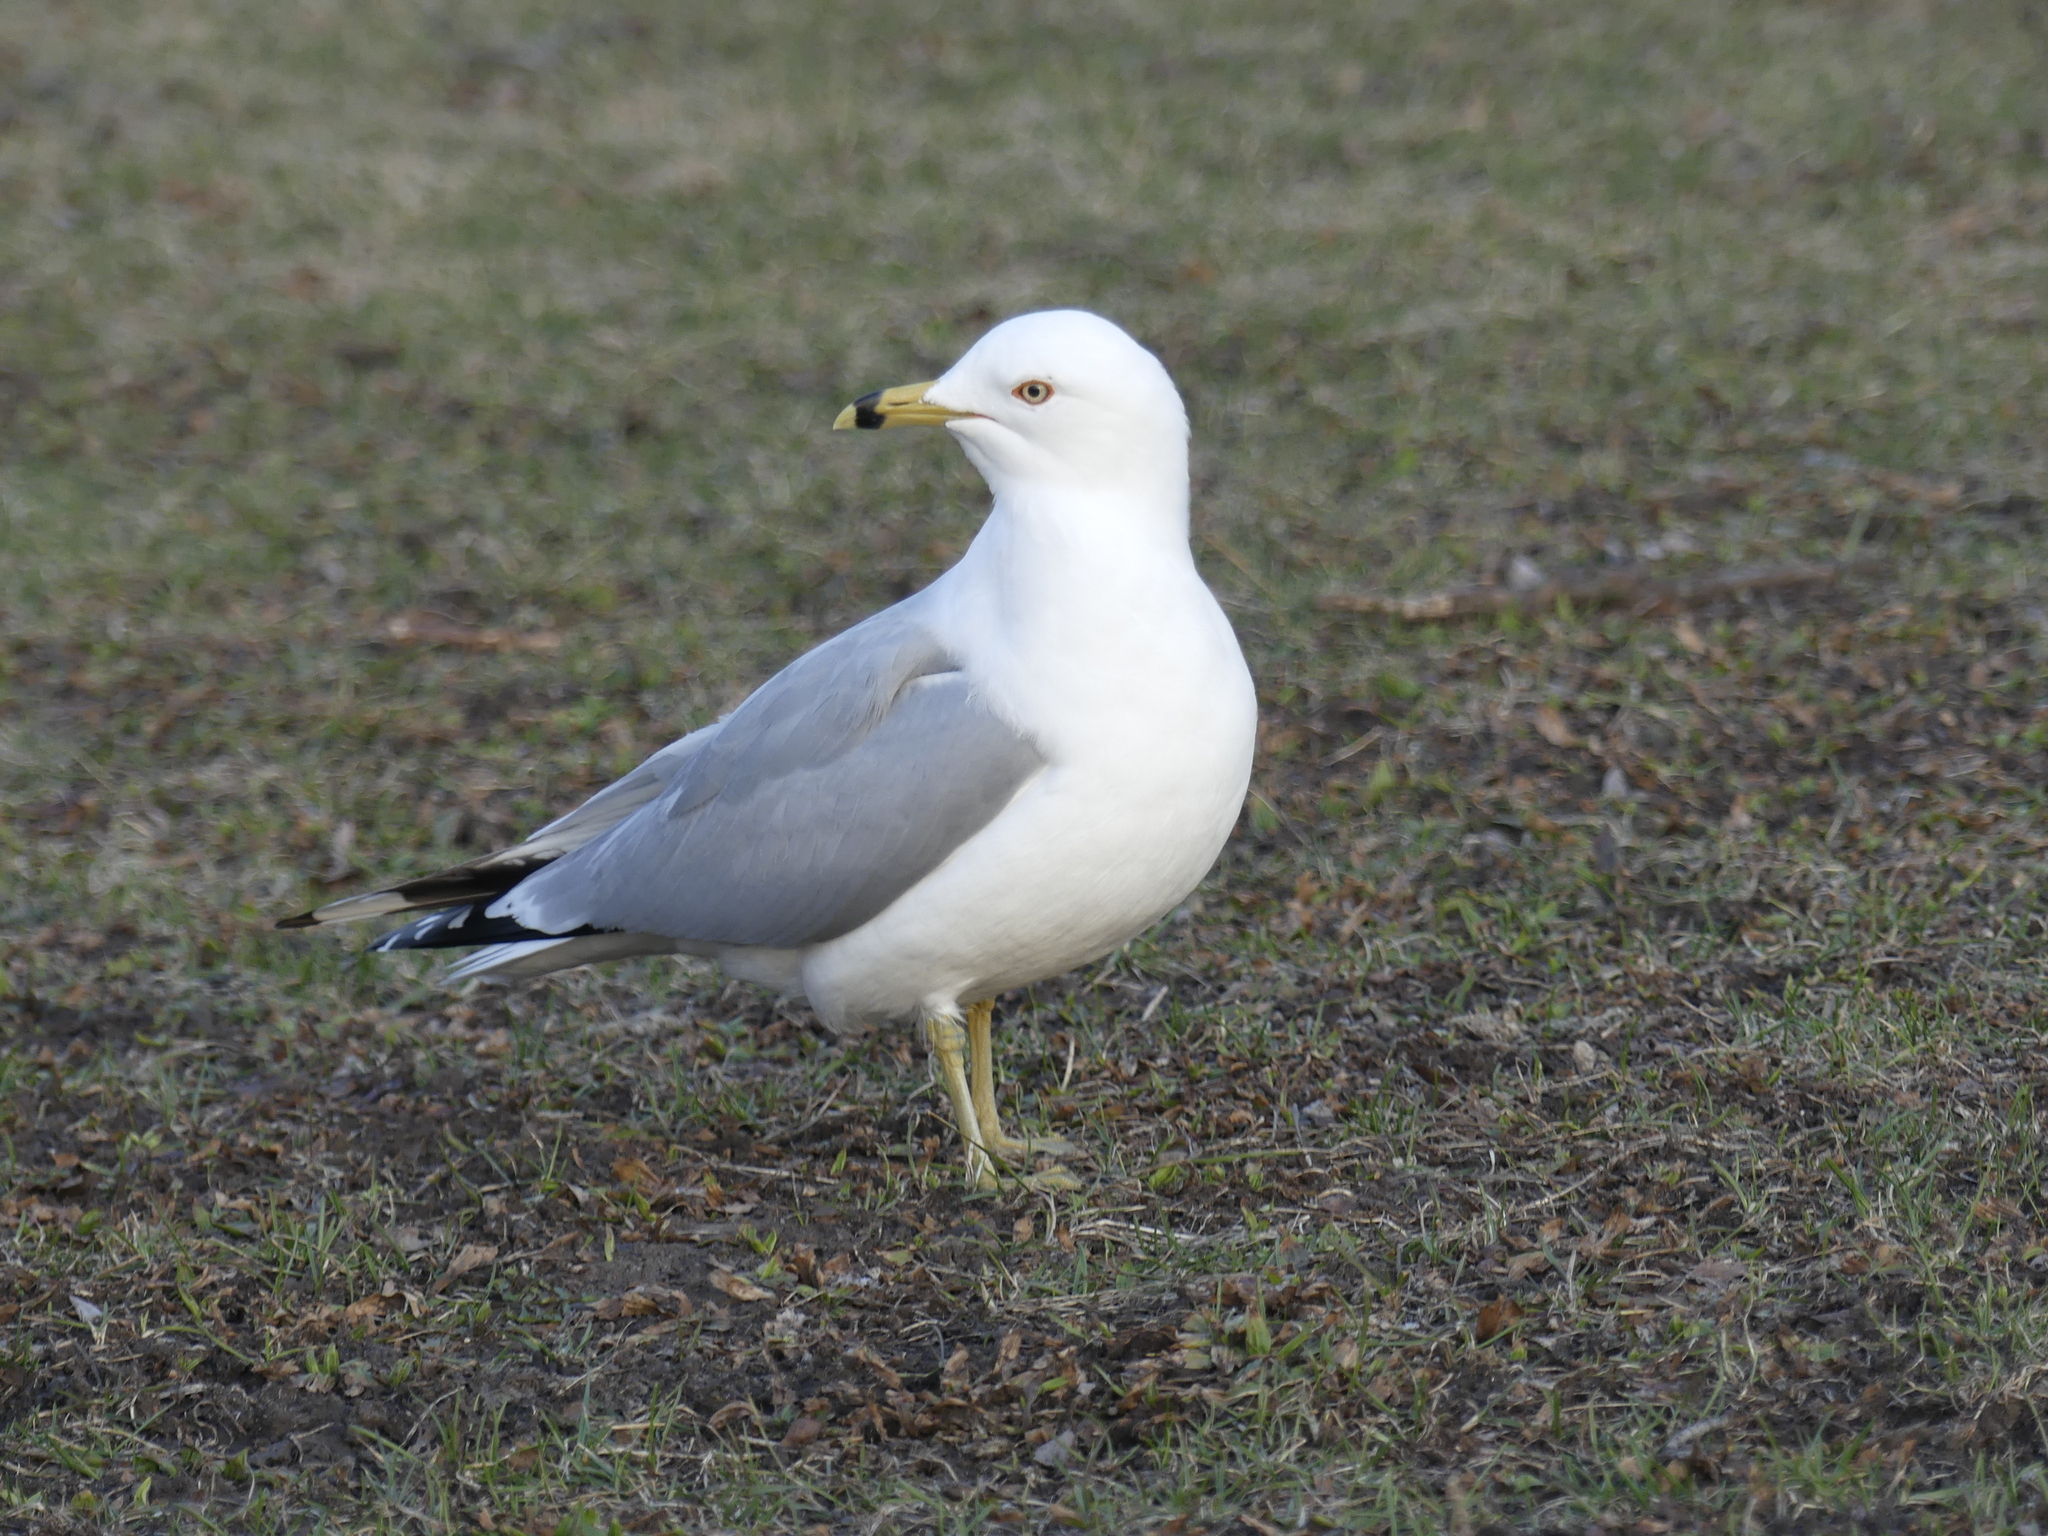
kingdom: Animalia
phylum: Chordata
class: Aves
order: Charadriiformes
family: Laridae
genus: Larus
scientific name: Larus delawarensis
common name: Ring-billed gull
